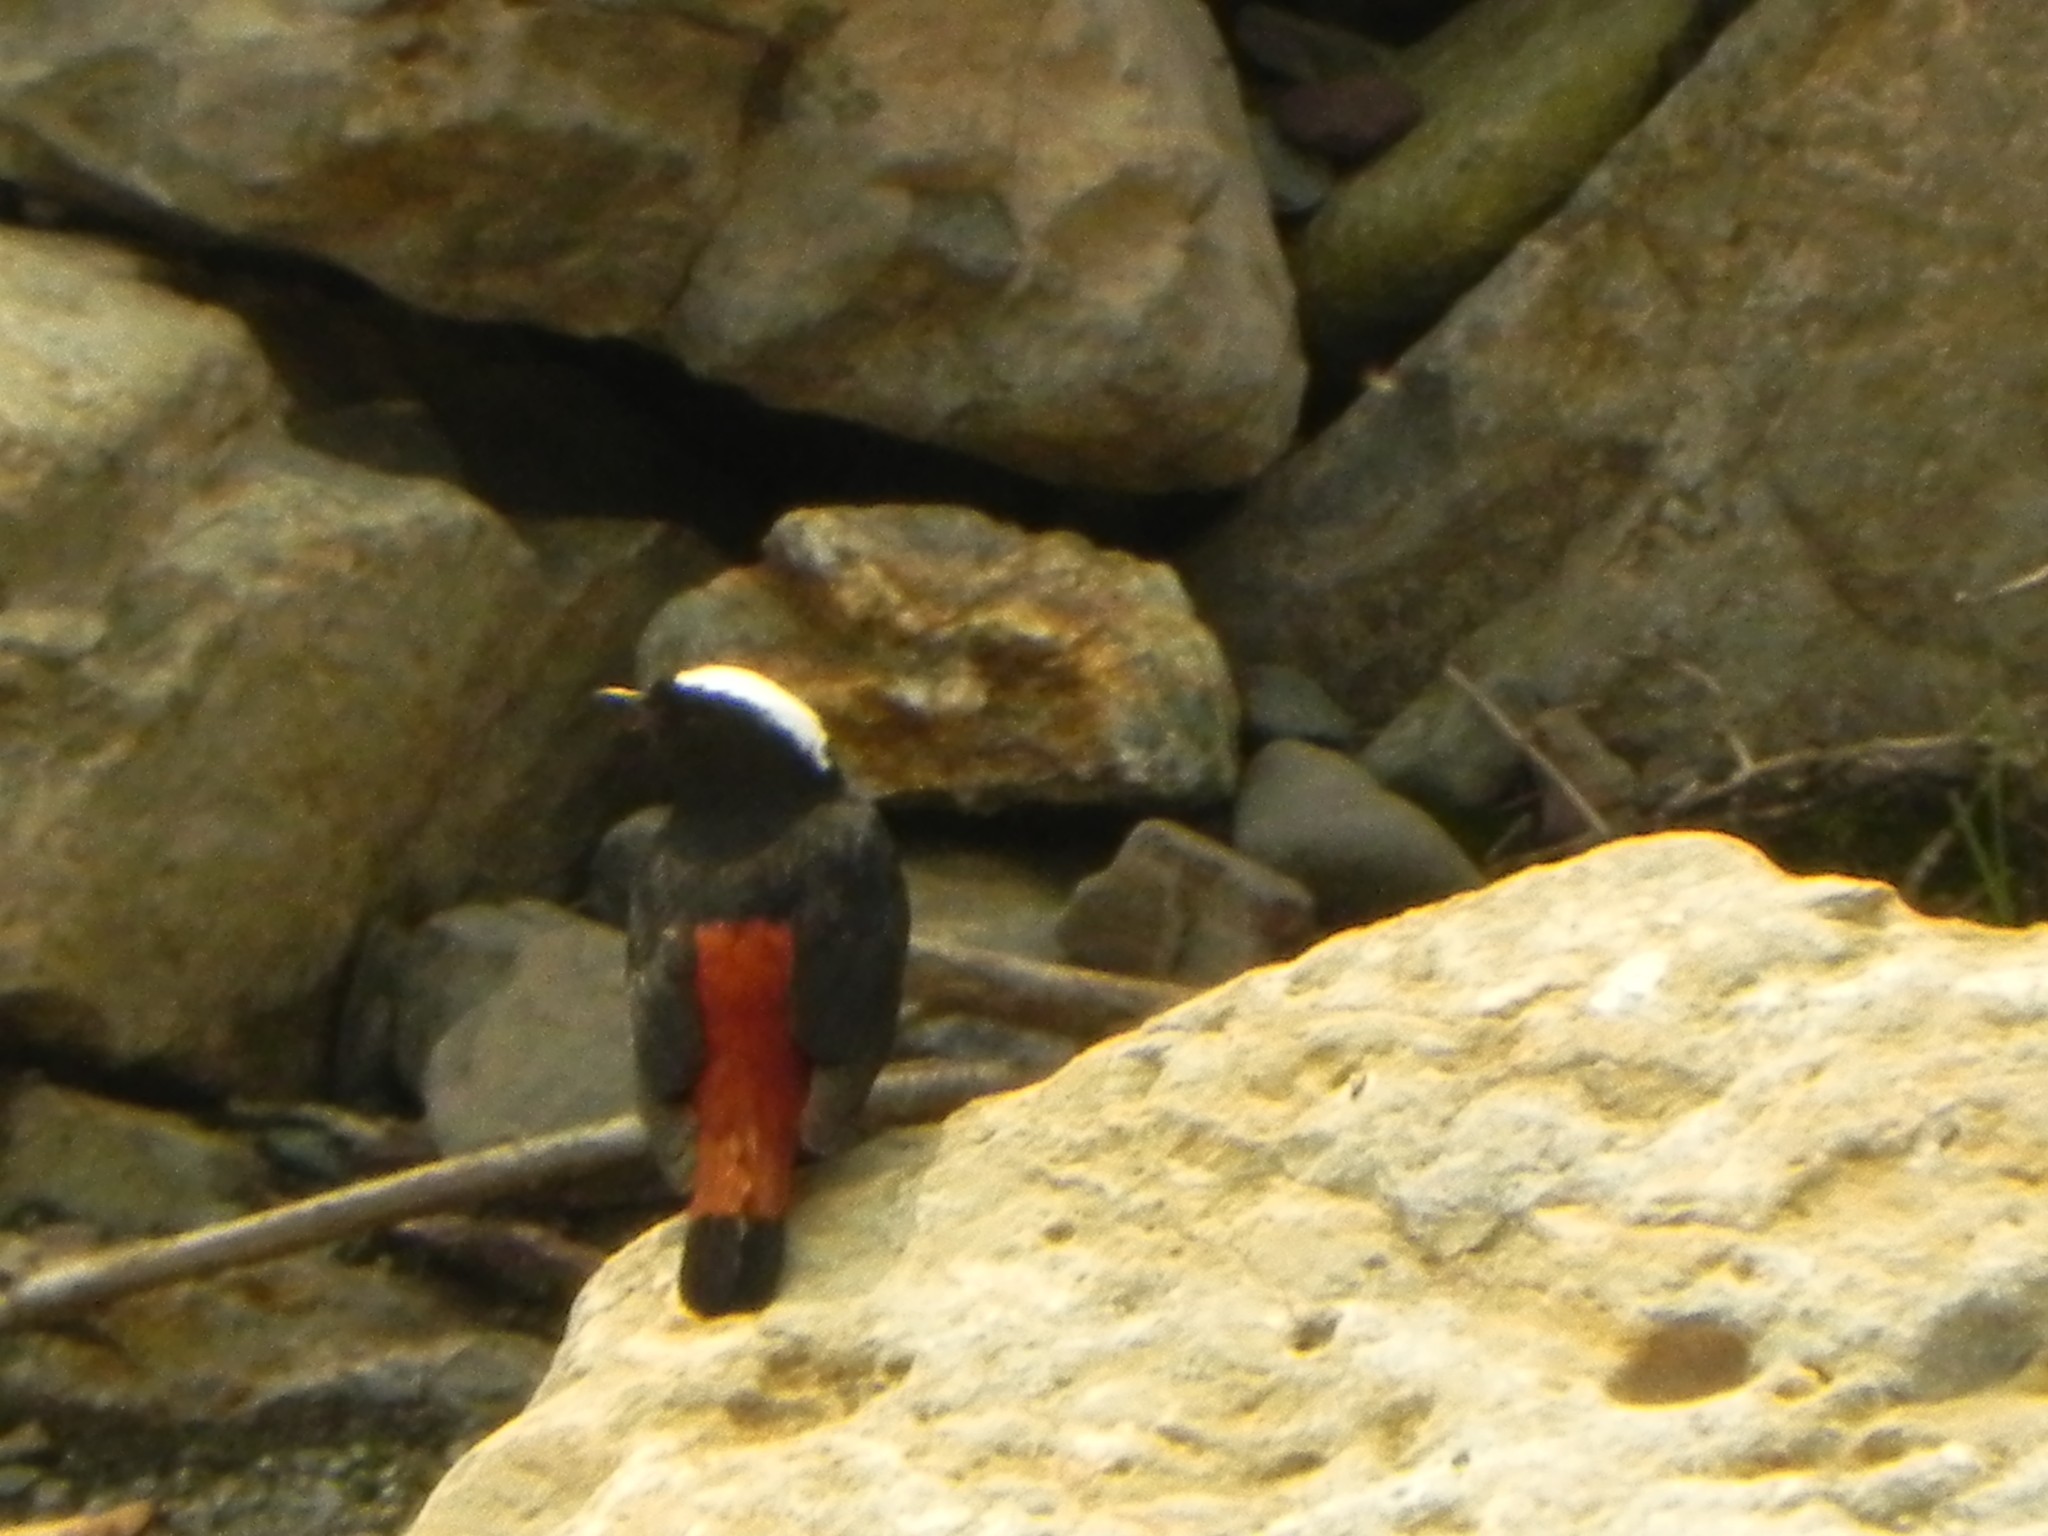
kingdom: Animalia
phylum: Chordata
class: Aves
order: Passeriformes
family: Muscicapidae
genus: Chaimarrornis
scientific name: Chaimarrornis leucocephalus
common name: White-capped redstart
